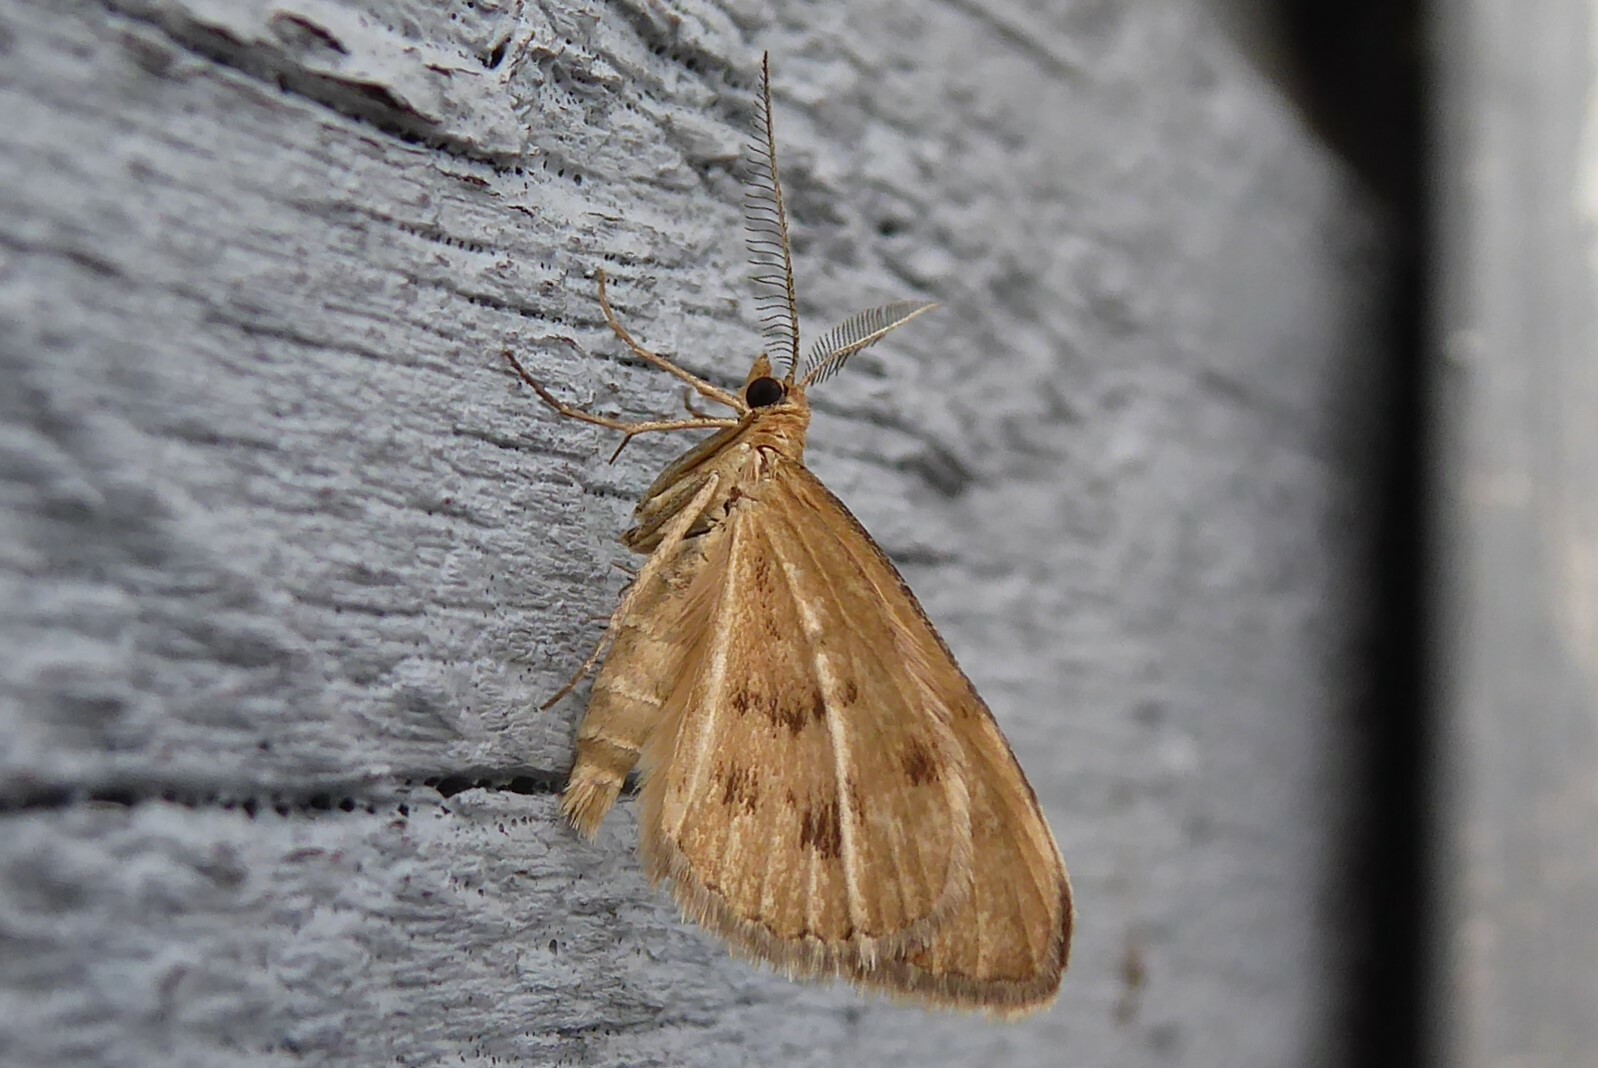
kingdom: Animalia
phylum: Arthropoda
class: Insecta
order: Lepidoptera
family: Geometridae
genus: Asaphodes
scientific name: Asaphodes abrogata
